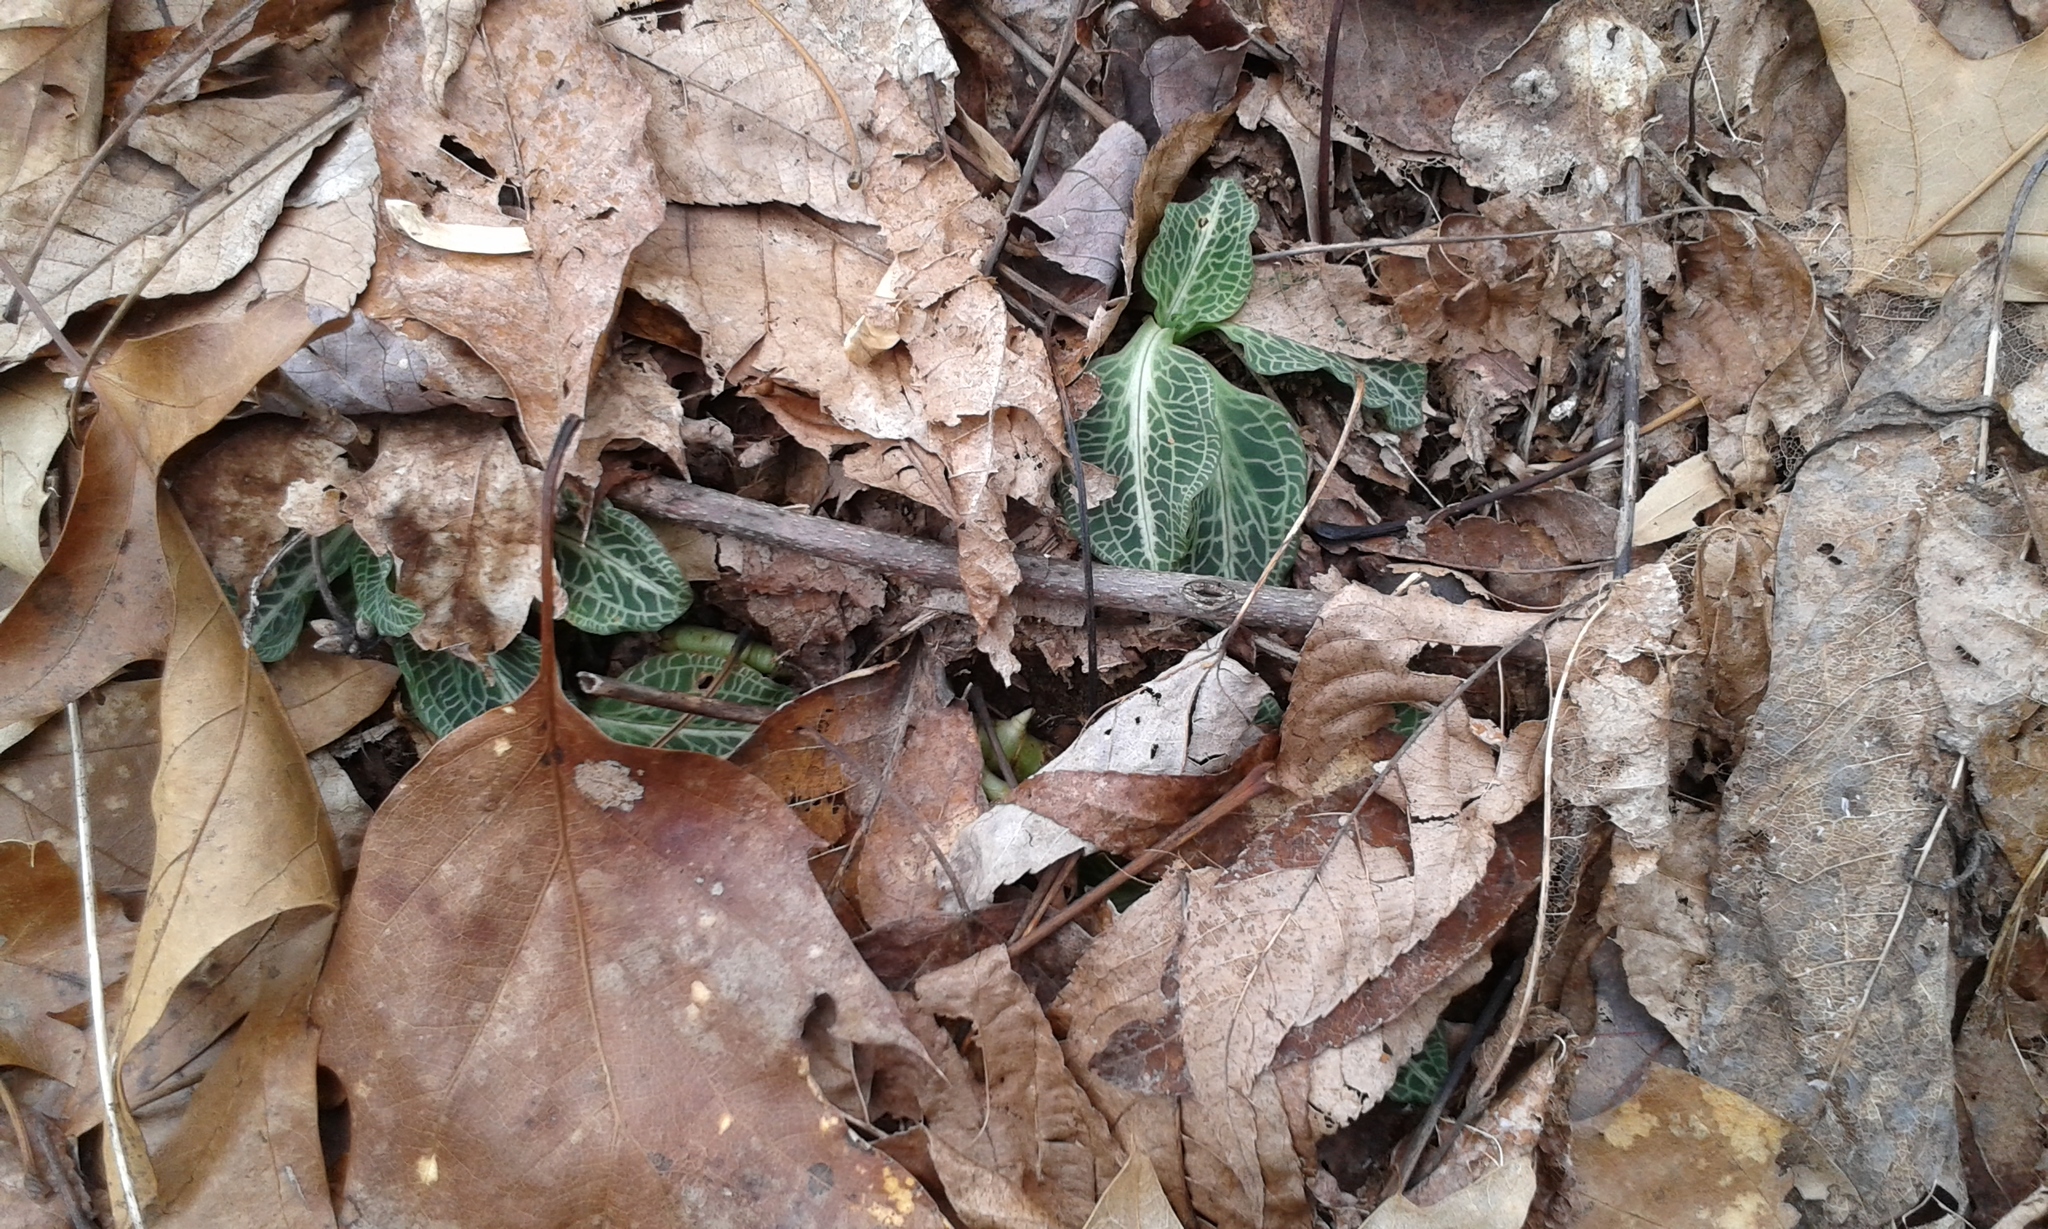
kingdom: Plantae
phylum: Tracheophyta
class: Liliopsida
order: Asparagales
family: Orchidaceae
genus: Goodyera
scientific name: Goodyera pubescens
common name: Downy rattlesnake-plantain
